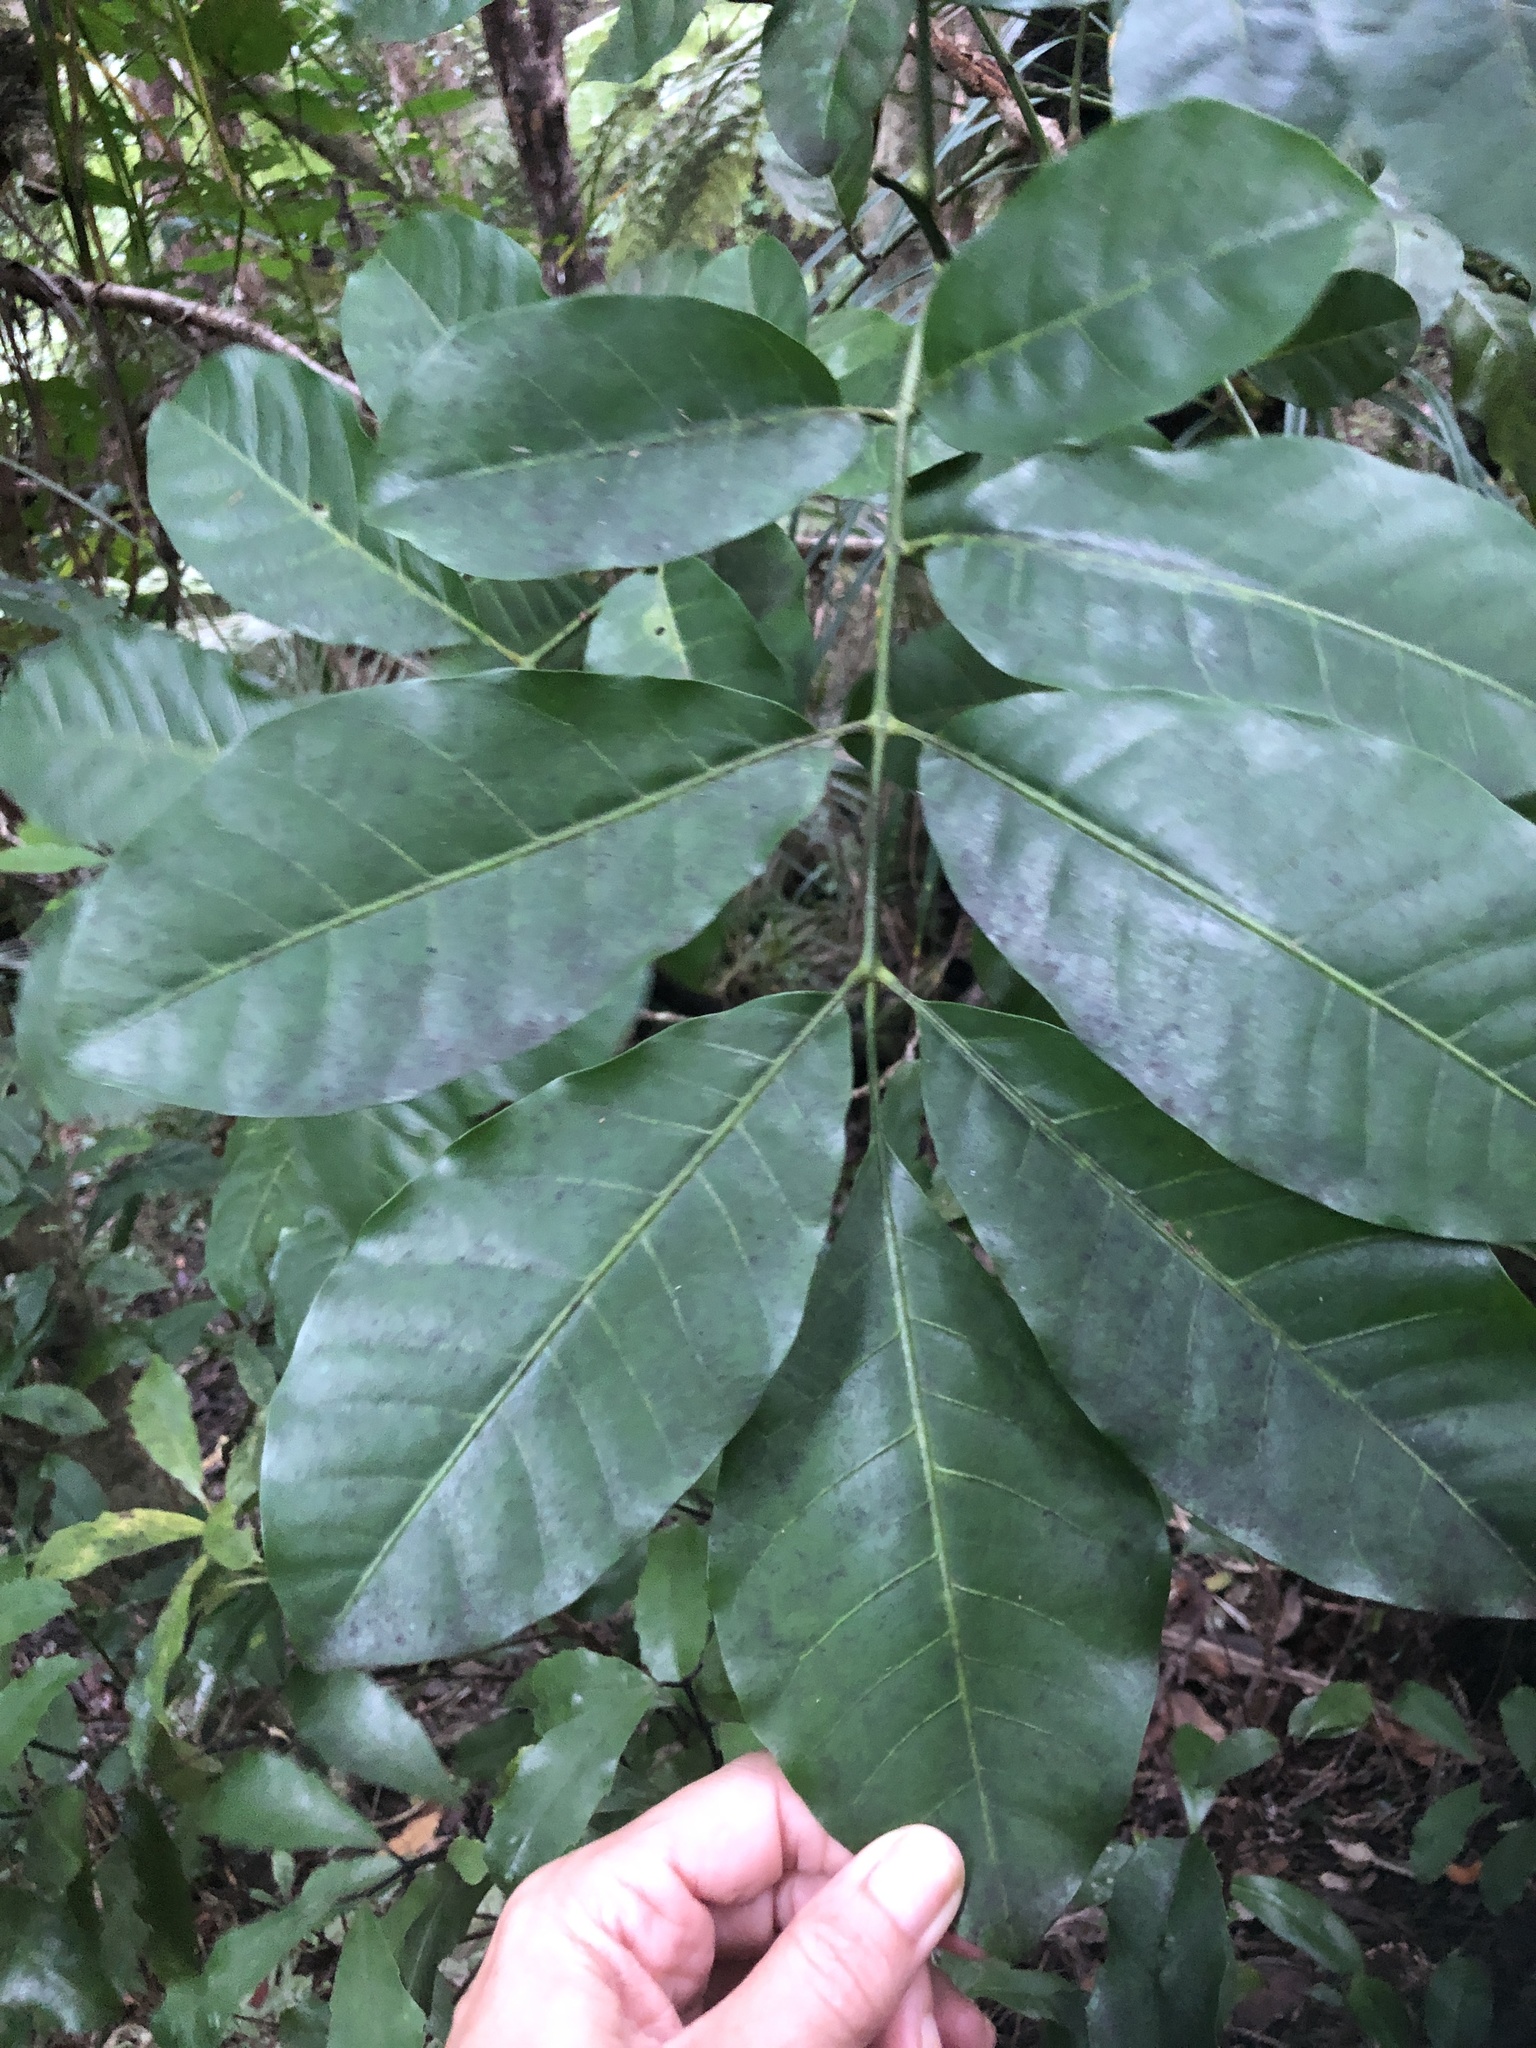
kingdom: Plantae
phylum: Tracheophyta
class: Magnoliopsida
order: Sapindales
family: Meliaceae
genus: Didymocheton
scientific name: Didymocheton spectabilis
